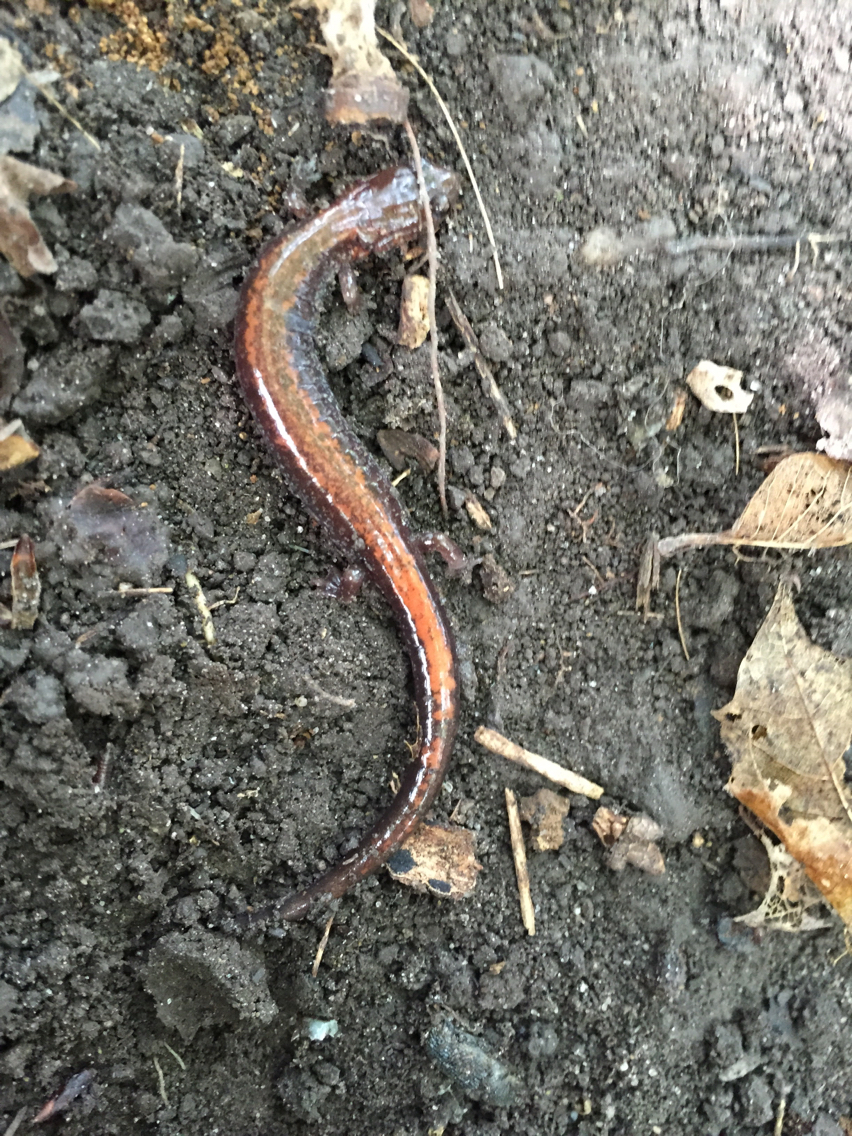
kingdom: Animalia
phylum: Chordata
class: Amphibia
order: Caudata
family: Plethodontidae
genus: Plethodon
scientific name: Plethodon cinereus
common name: Redback salamander
